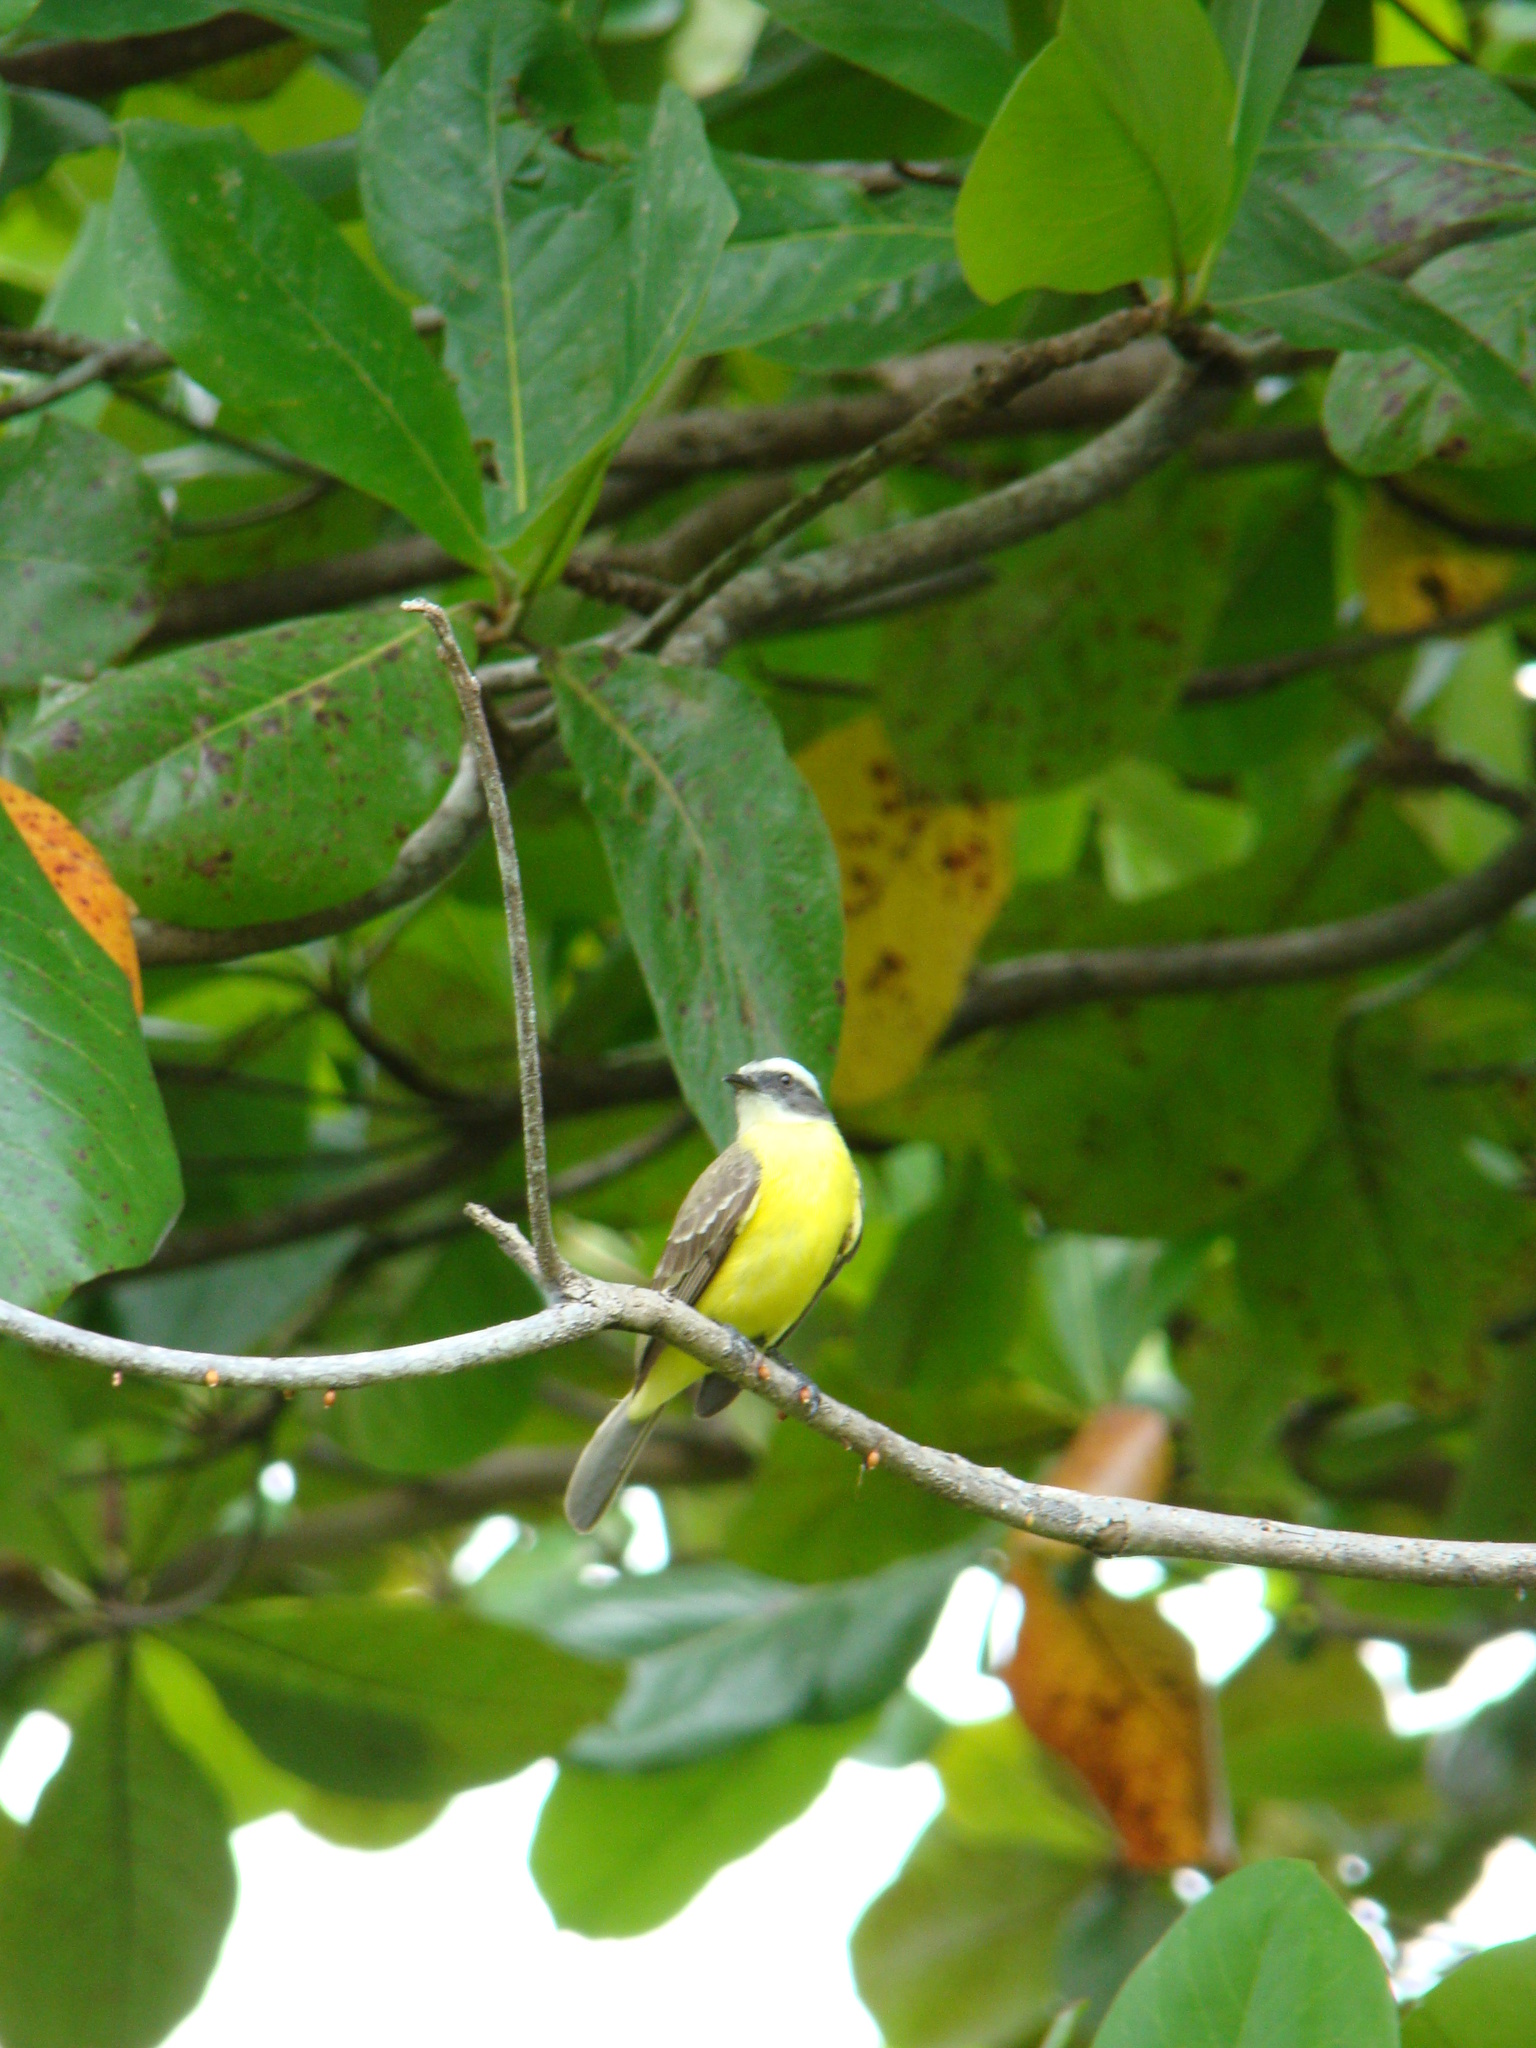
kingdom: Animalia
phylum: Chordata
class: Aves
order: Passeriformes
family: Tyrannidae
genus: Myiozetetes
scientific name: Myiozetetes similis
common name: Social flycatcher
